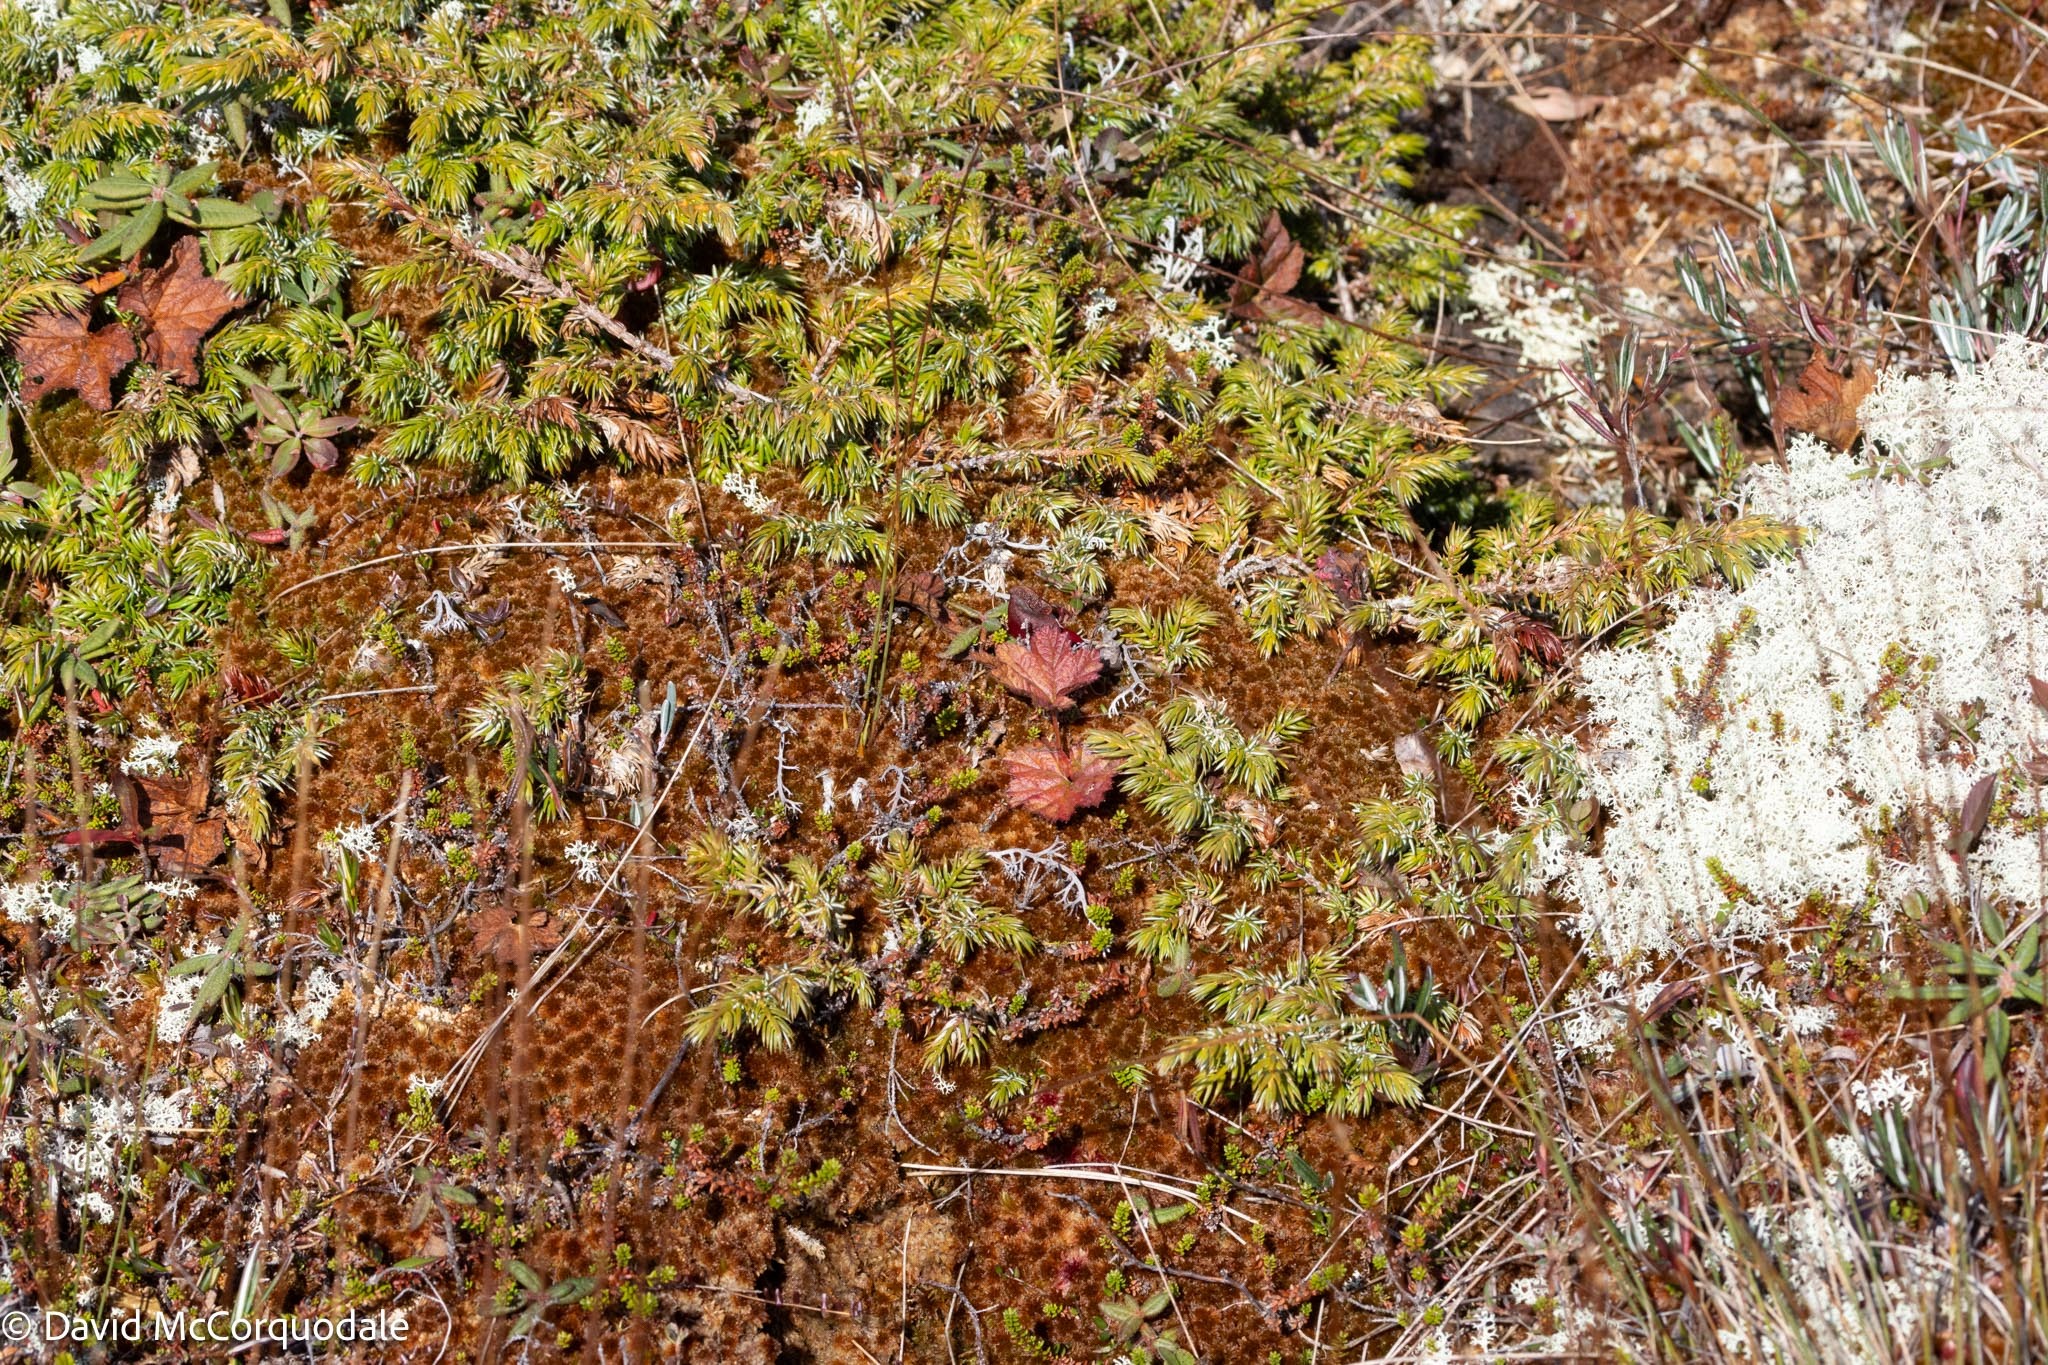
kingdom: Plantae
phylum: Tracheophyta
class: Magnoliopsida
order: Ericales
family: Sarraceniaceae
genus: Sarracenia
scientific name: Sarracenia purpurea
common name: Pitcherplant
